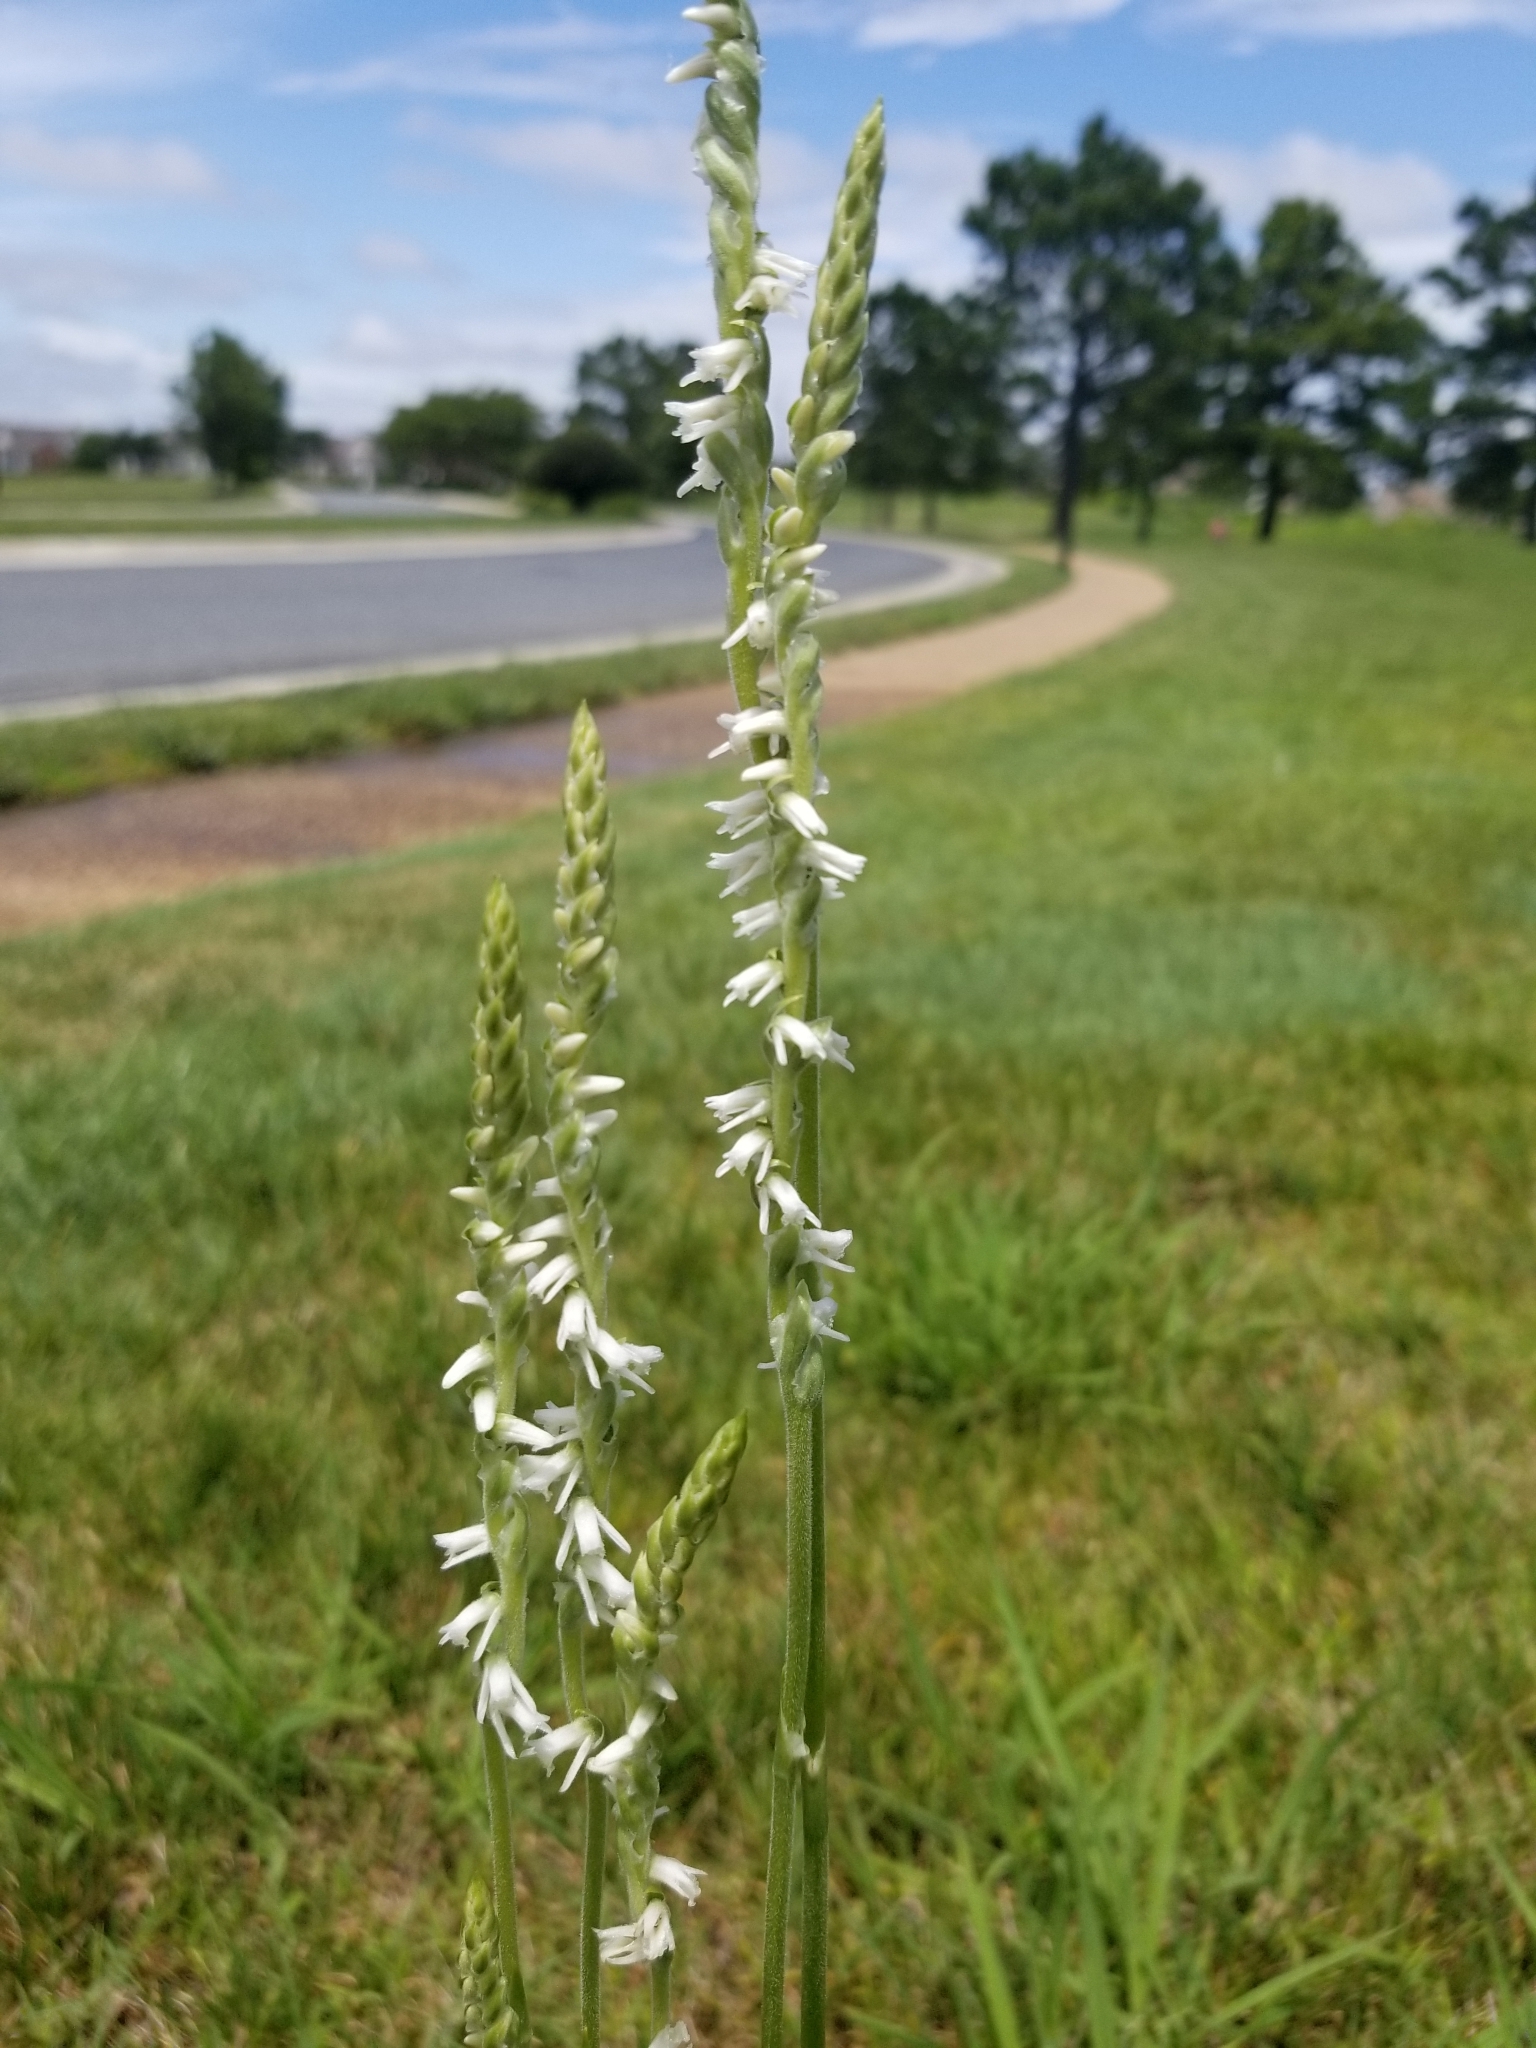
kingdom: Plantae
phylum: Tracheophyta
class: Liliopsida
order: Asparagales
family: Orchidaceae
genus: Spiranthes
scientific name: Spiranthes vernalis
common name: Spring ladies'-tresses
